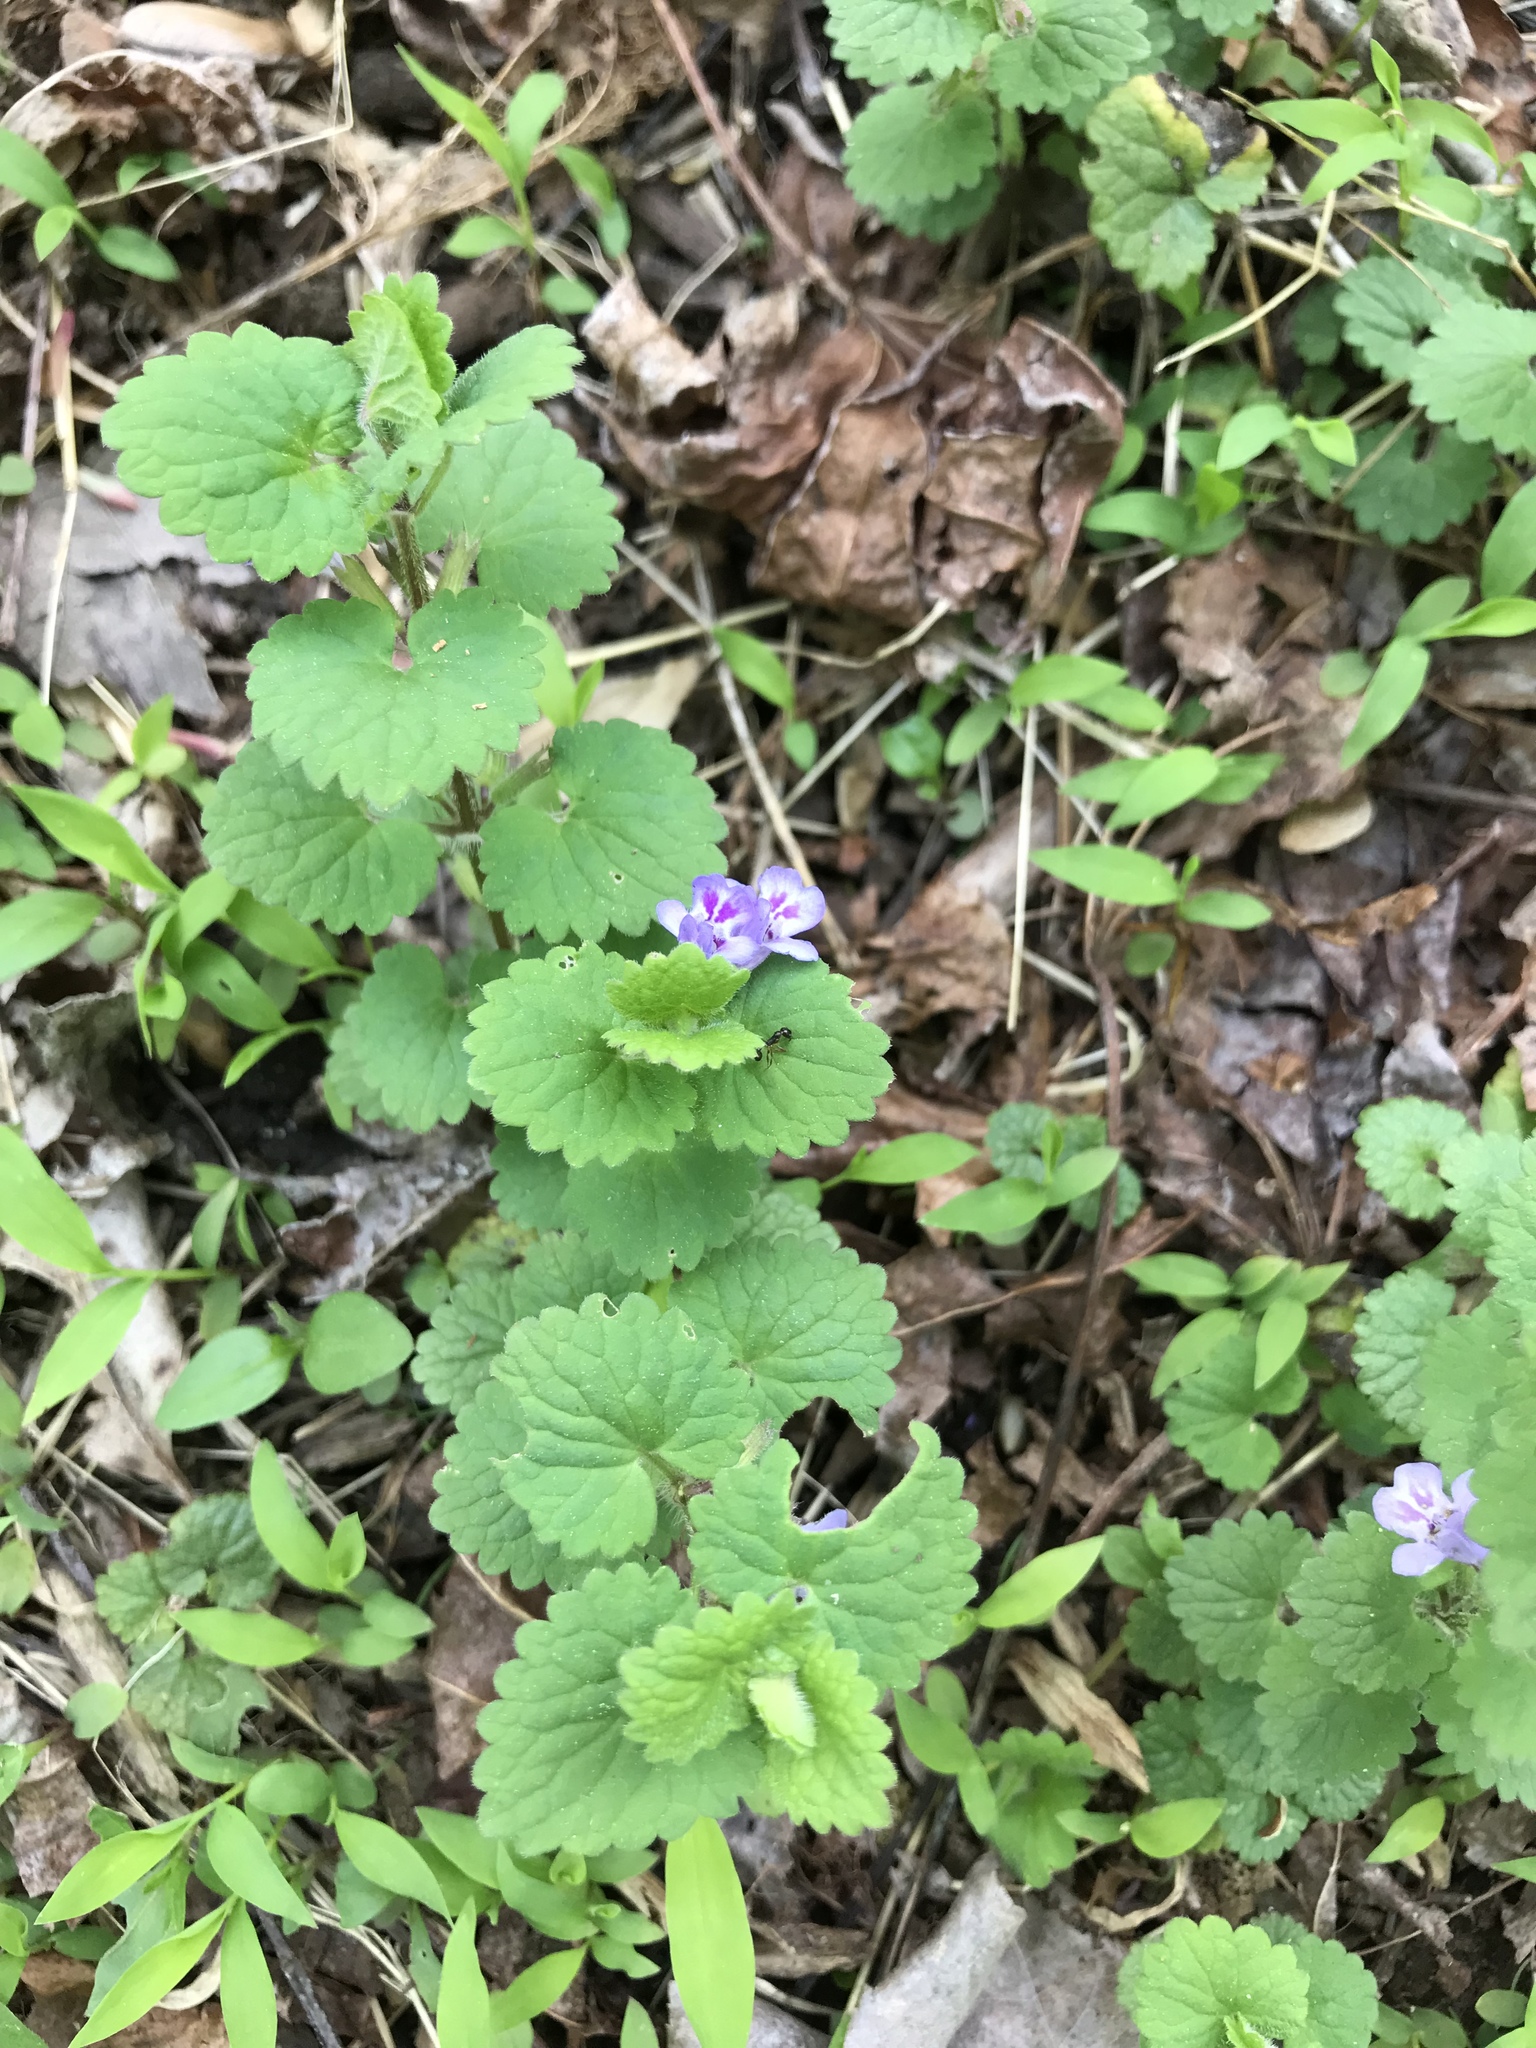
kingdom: Plantae
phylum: Tracheophyta
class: Magnoliopsida
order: Lamiales
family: Lamiaceae
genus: Glechoma
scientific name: Glechoma hederacea
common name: Ground ivy
